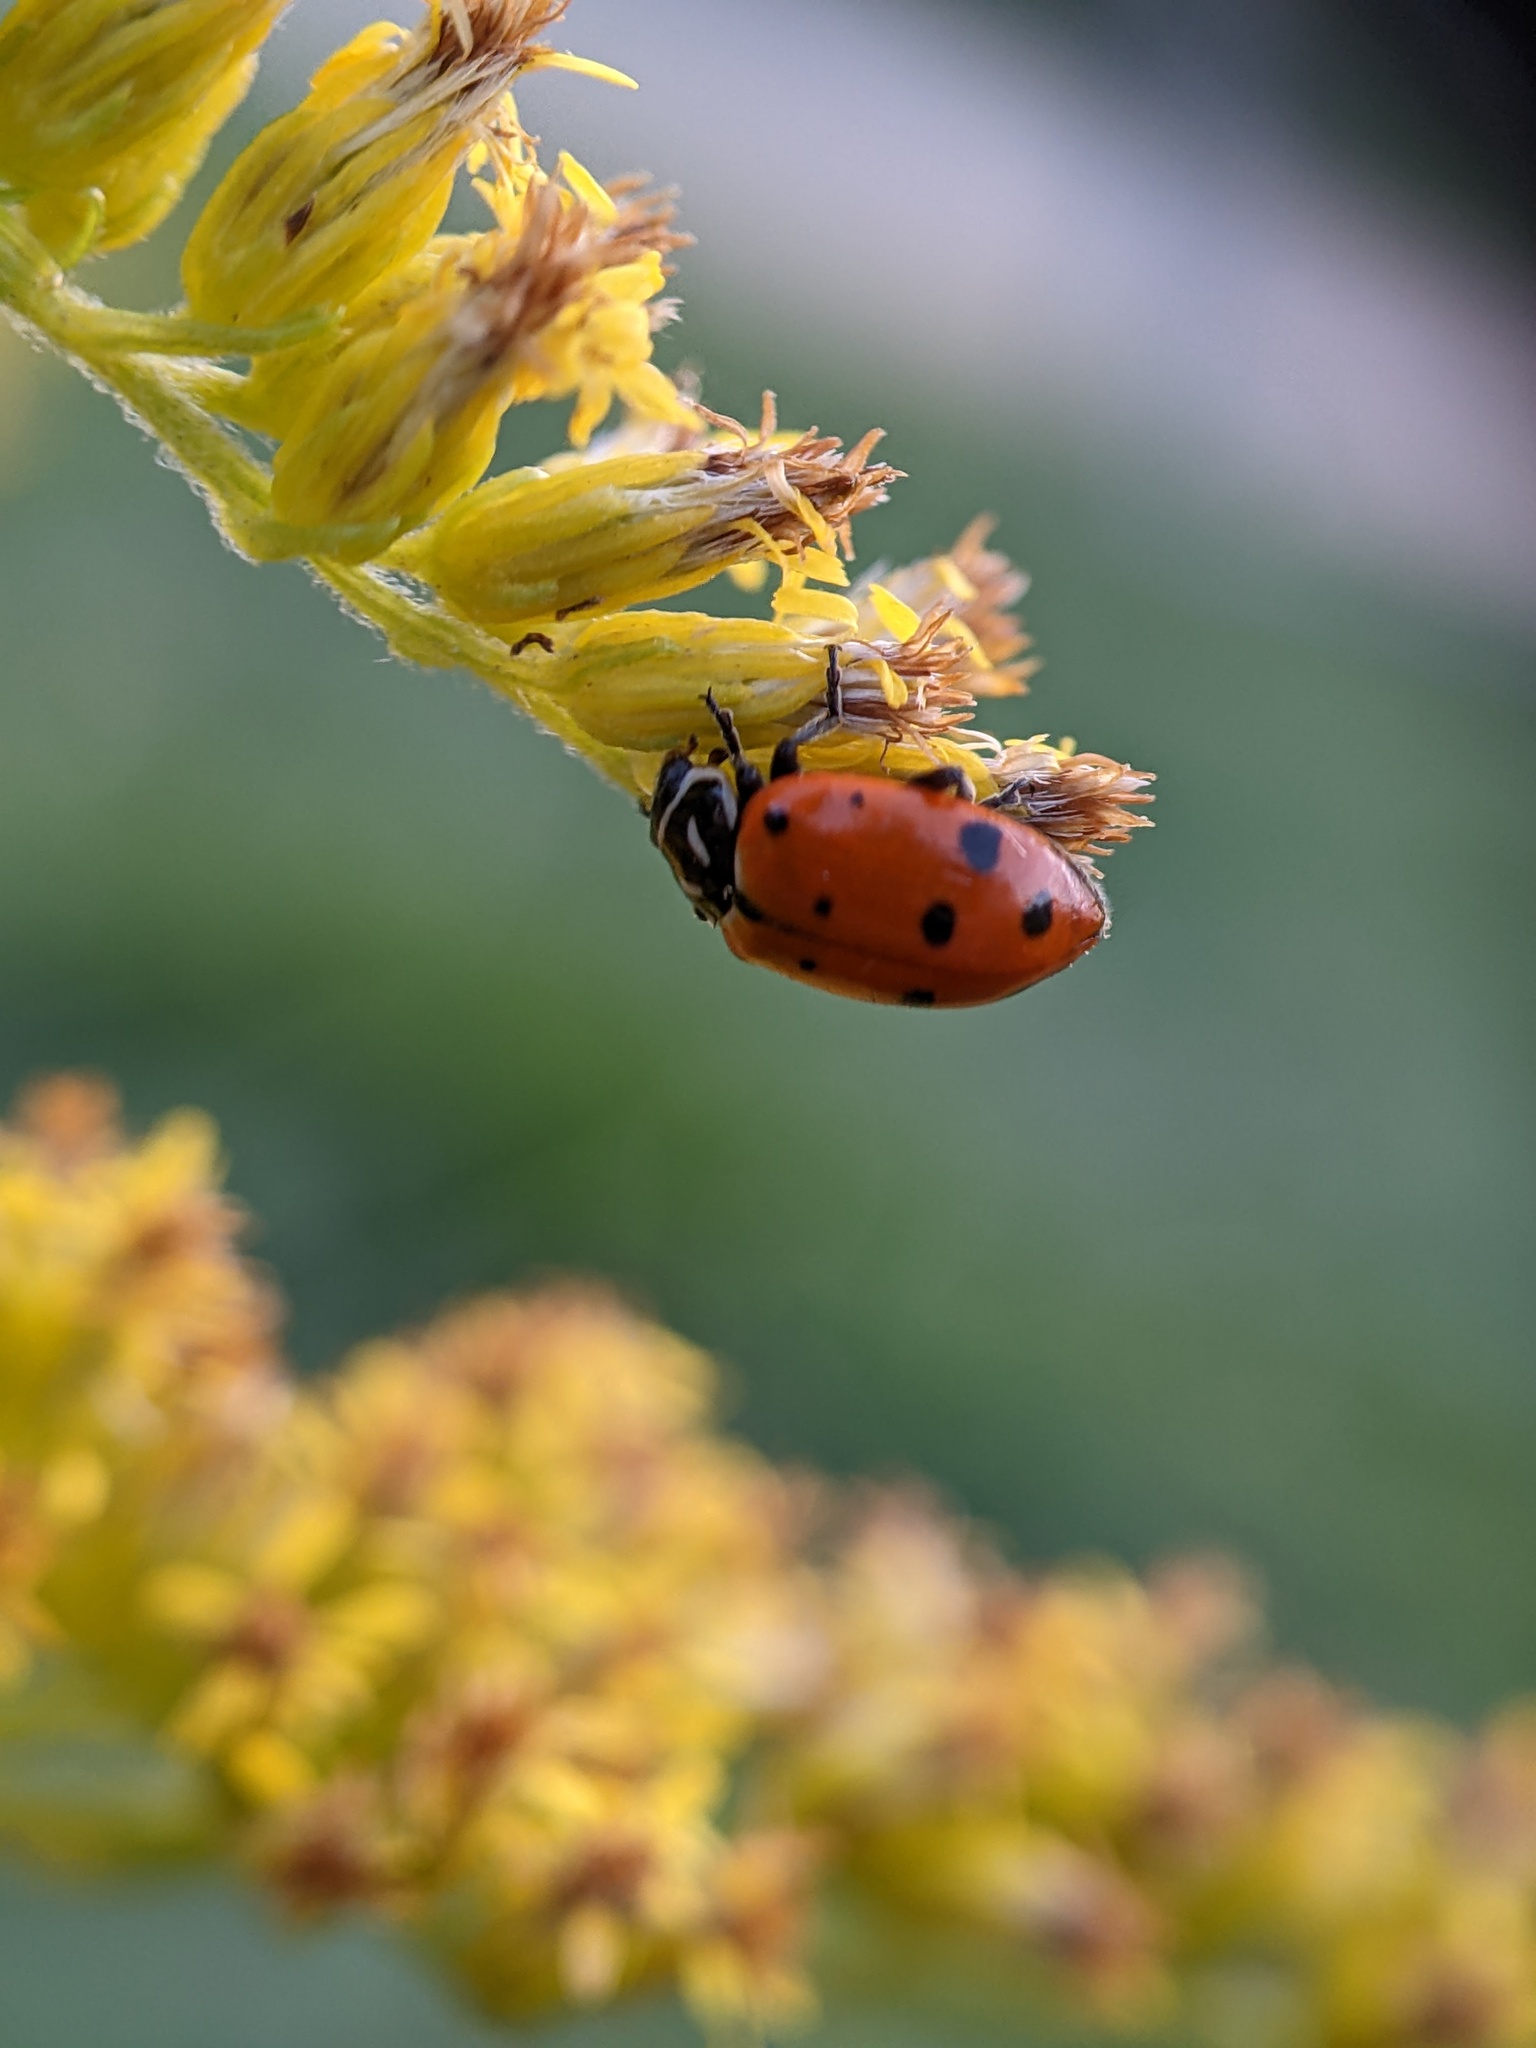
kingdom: Animalia
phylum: Arthropoda
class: Insecta
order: Coleoptera
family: Coccinellidae
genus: Hippodamia
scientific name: Hippodamia convergens
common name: Convergent lady beetle
